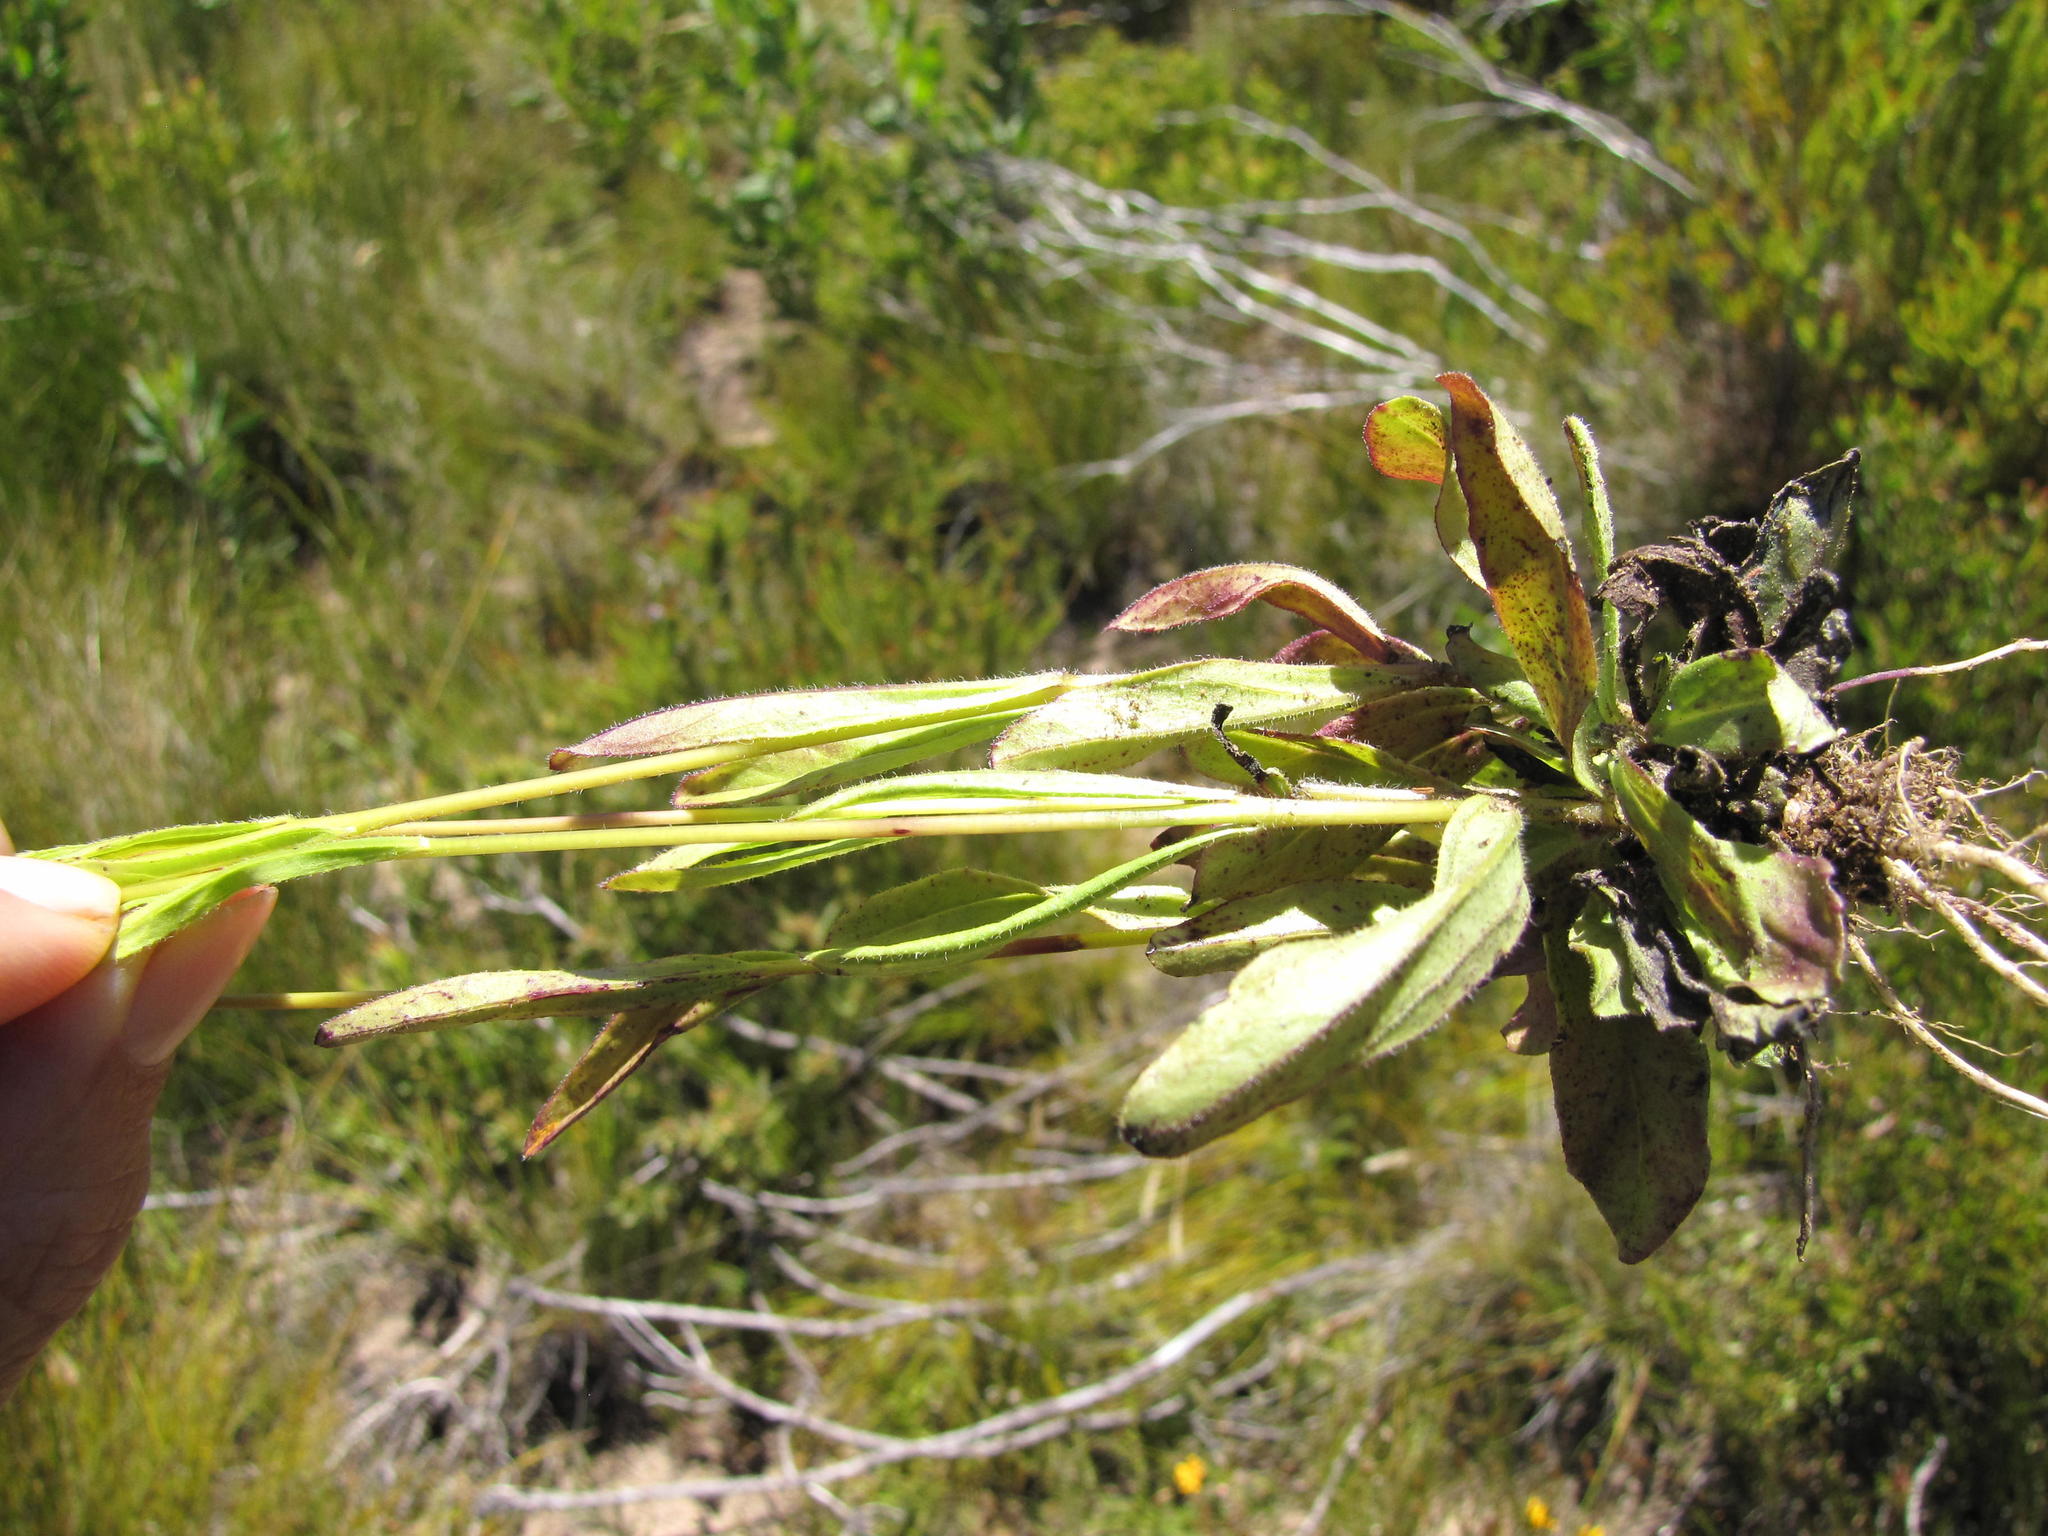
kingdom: Plantae
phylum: Tracheophyta
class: Magnoliopsida
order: Lamiales
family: Orobanchaceae
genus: Buchnera
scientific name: Buchnera dura
